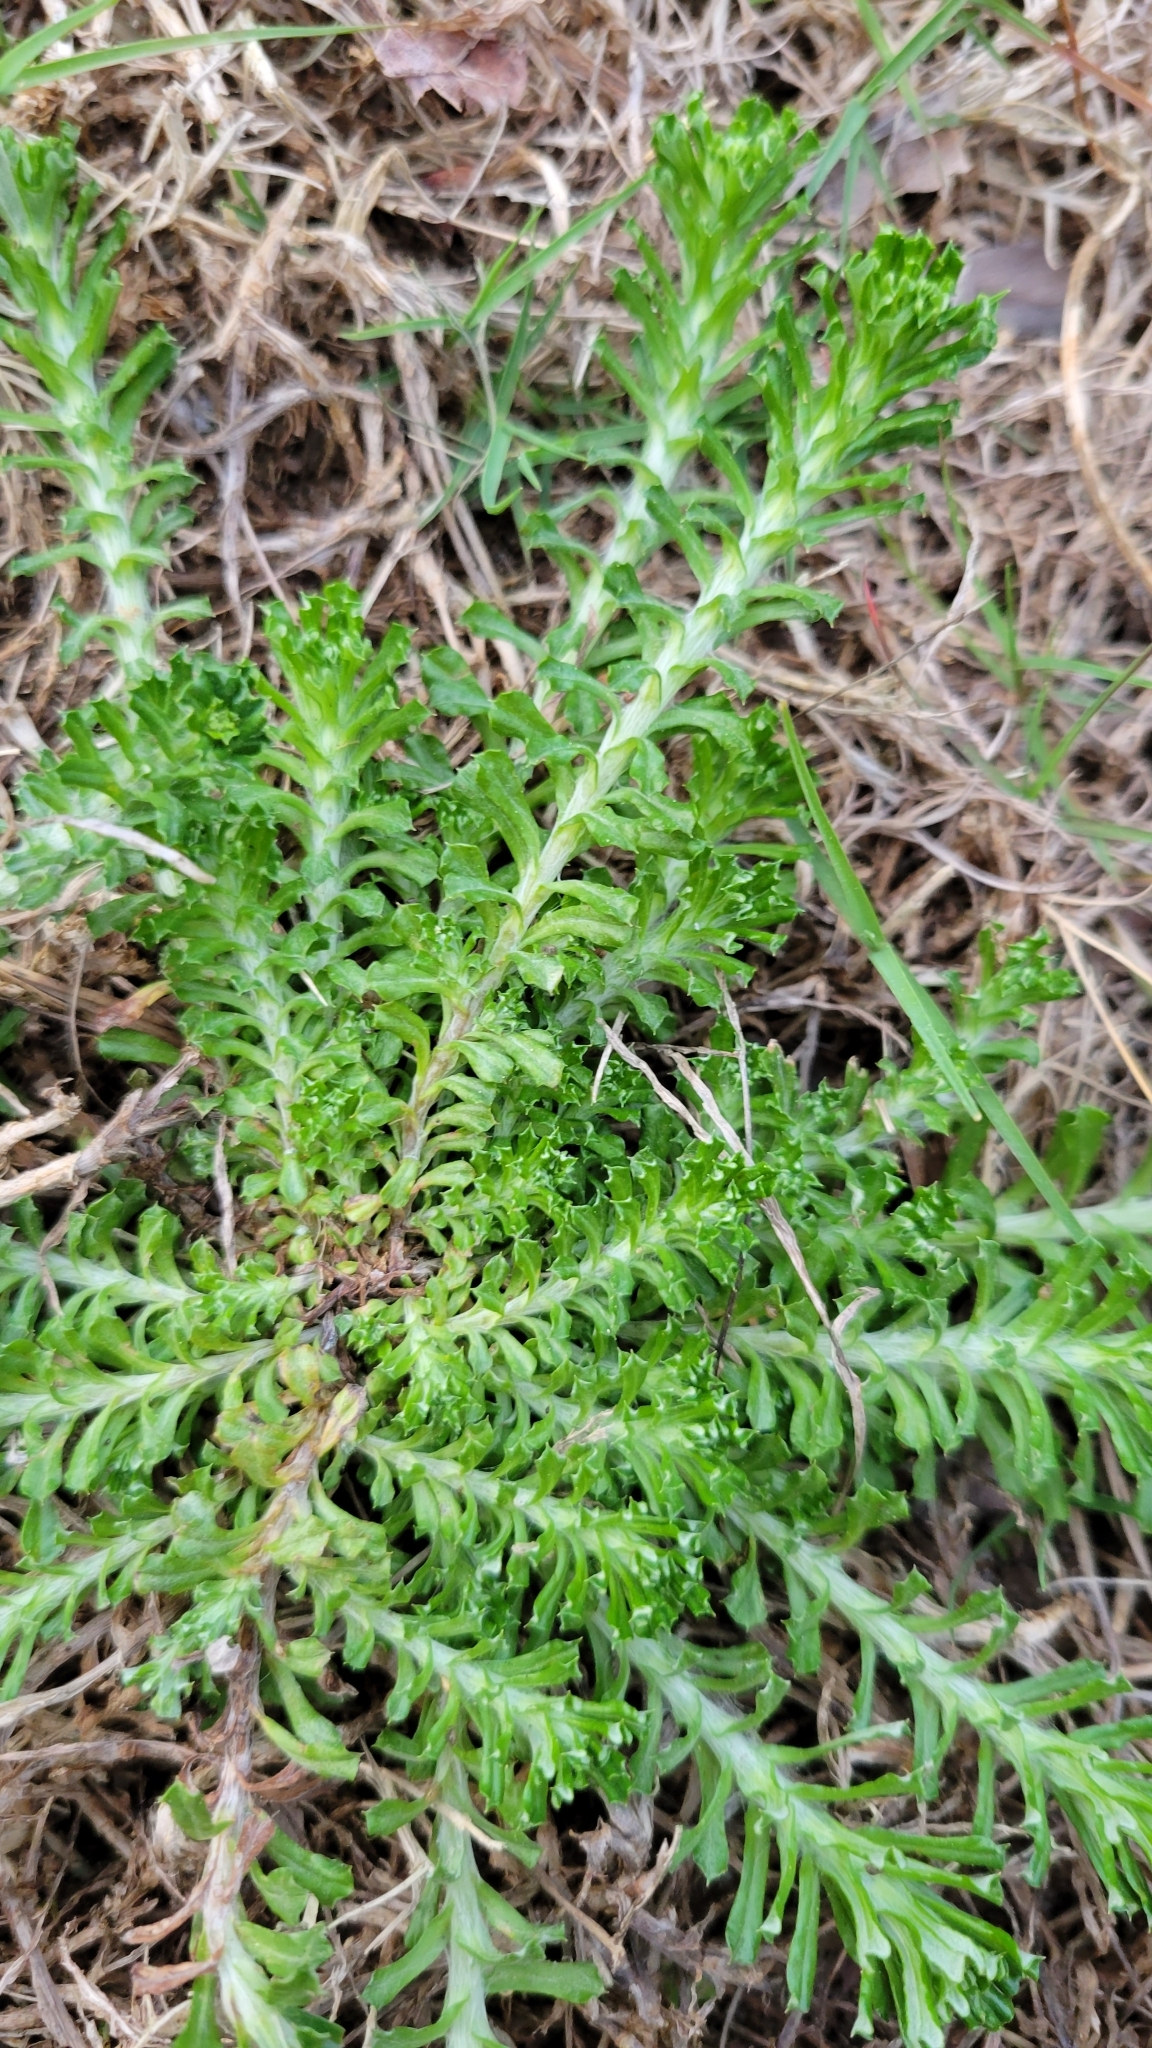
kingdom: Plantae
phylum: Tracheophyta
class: Magnoliopsida
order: Asterales
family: Asteraceae
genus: Facelis
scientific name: Facelis retusa
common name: Annual trampweed
